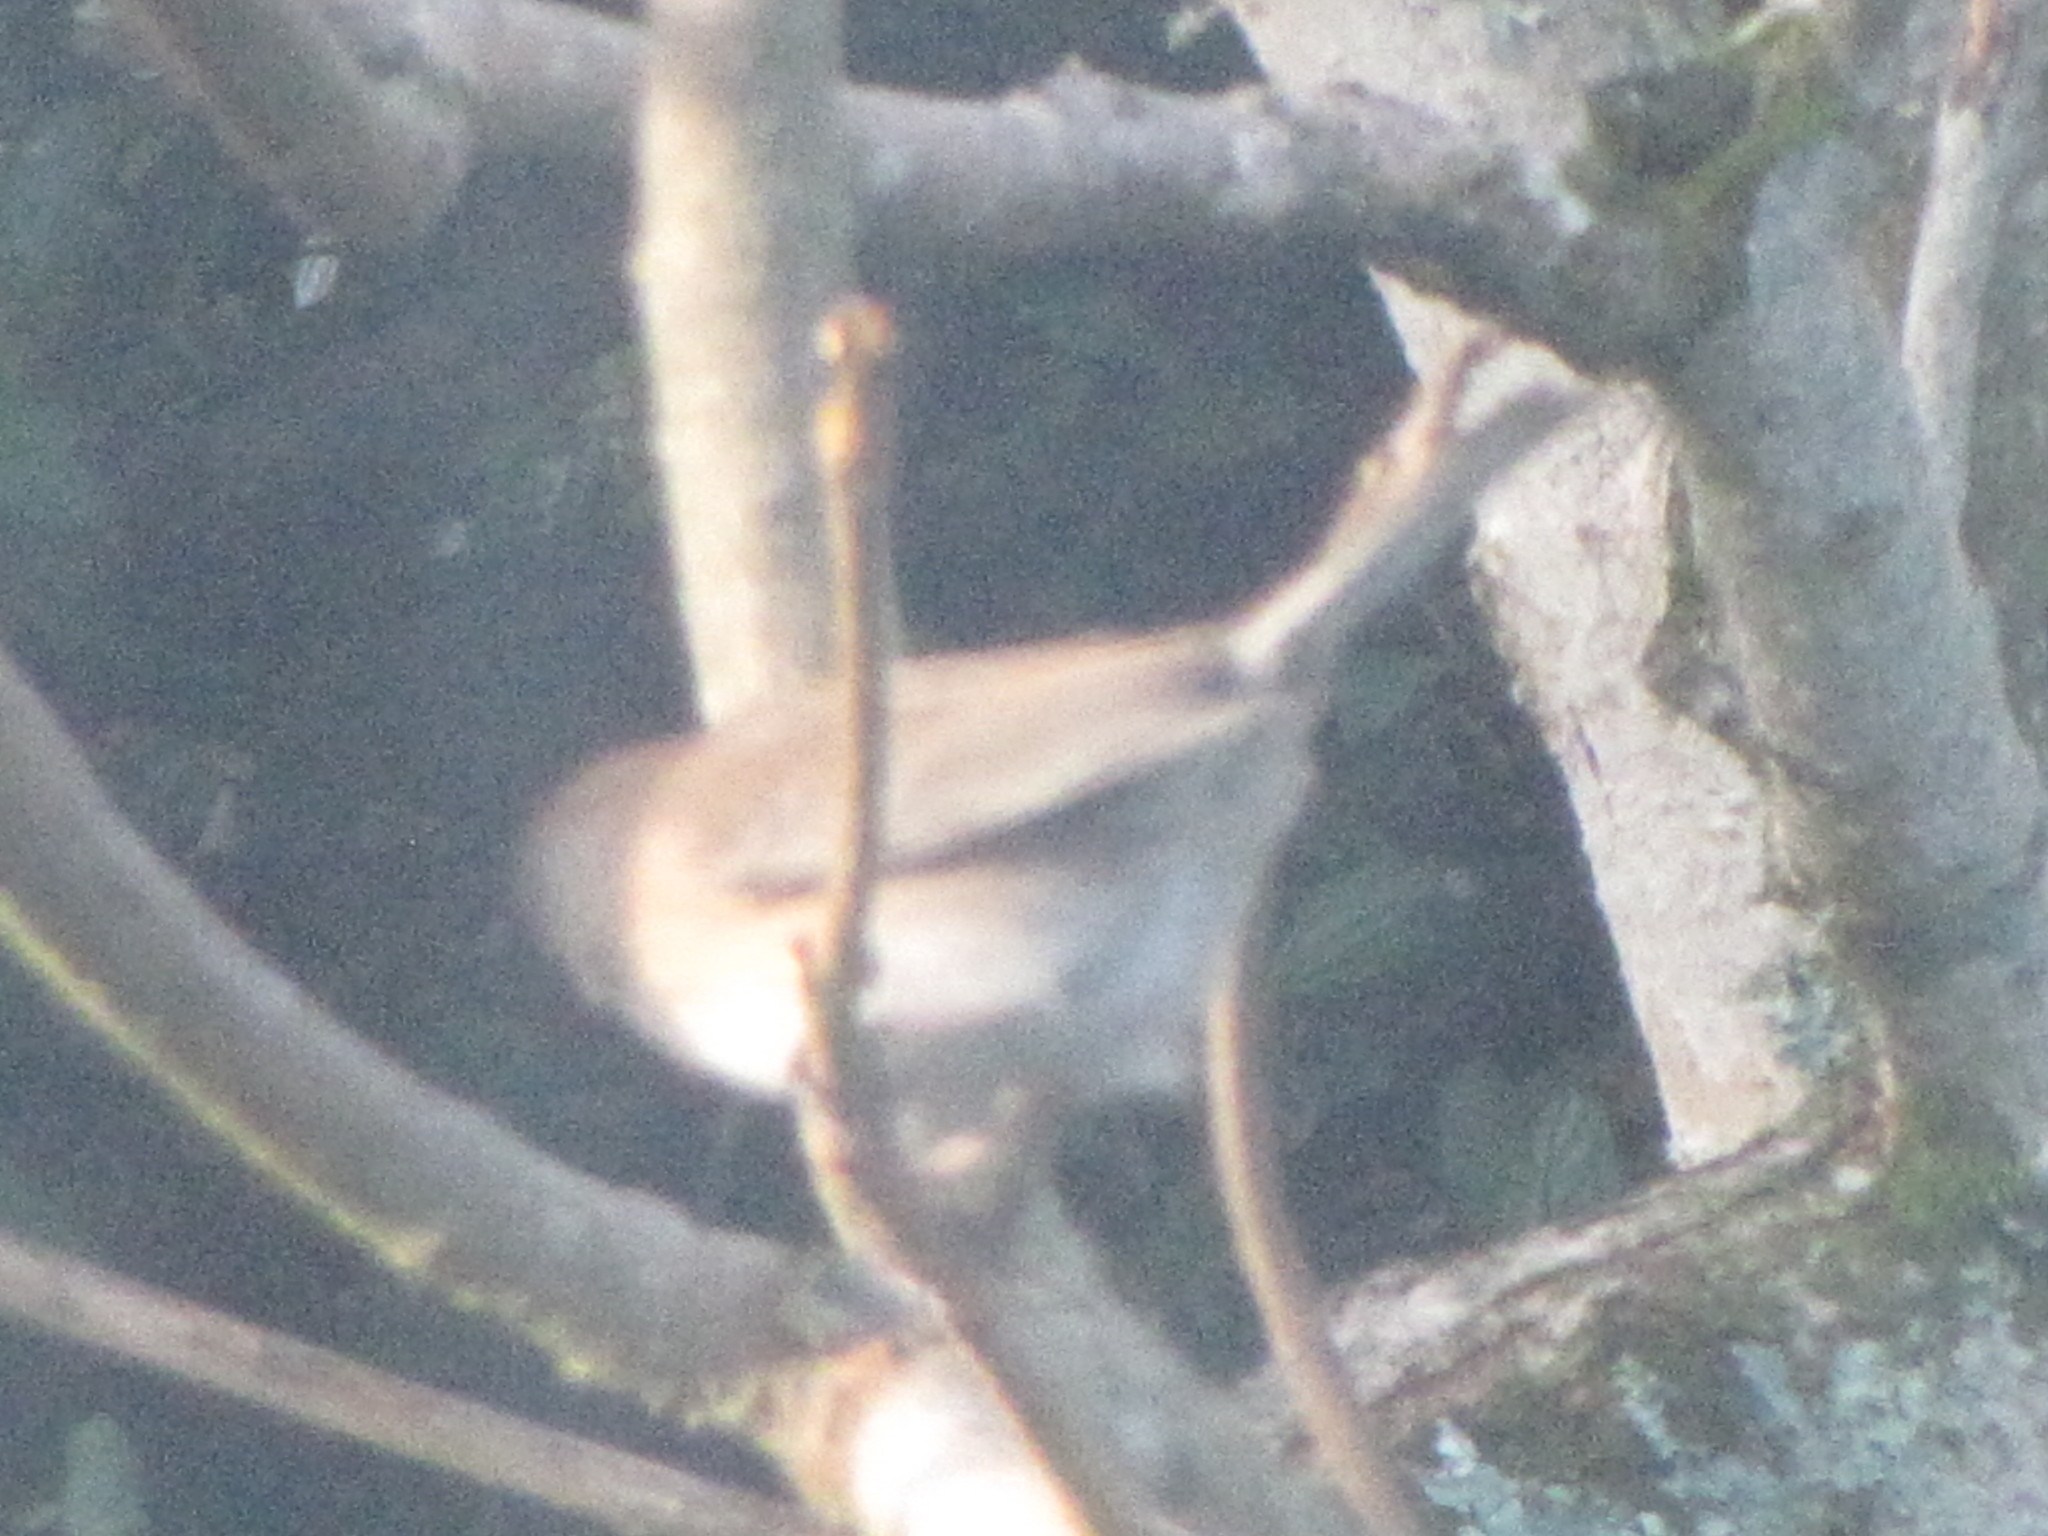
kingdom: Animalia
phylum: Chordata
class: Aves
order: Passeriformes
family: Passerellidae
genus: Junco
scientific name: Junco hyemalis
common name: Dark-eyed junco
